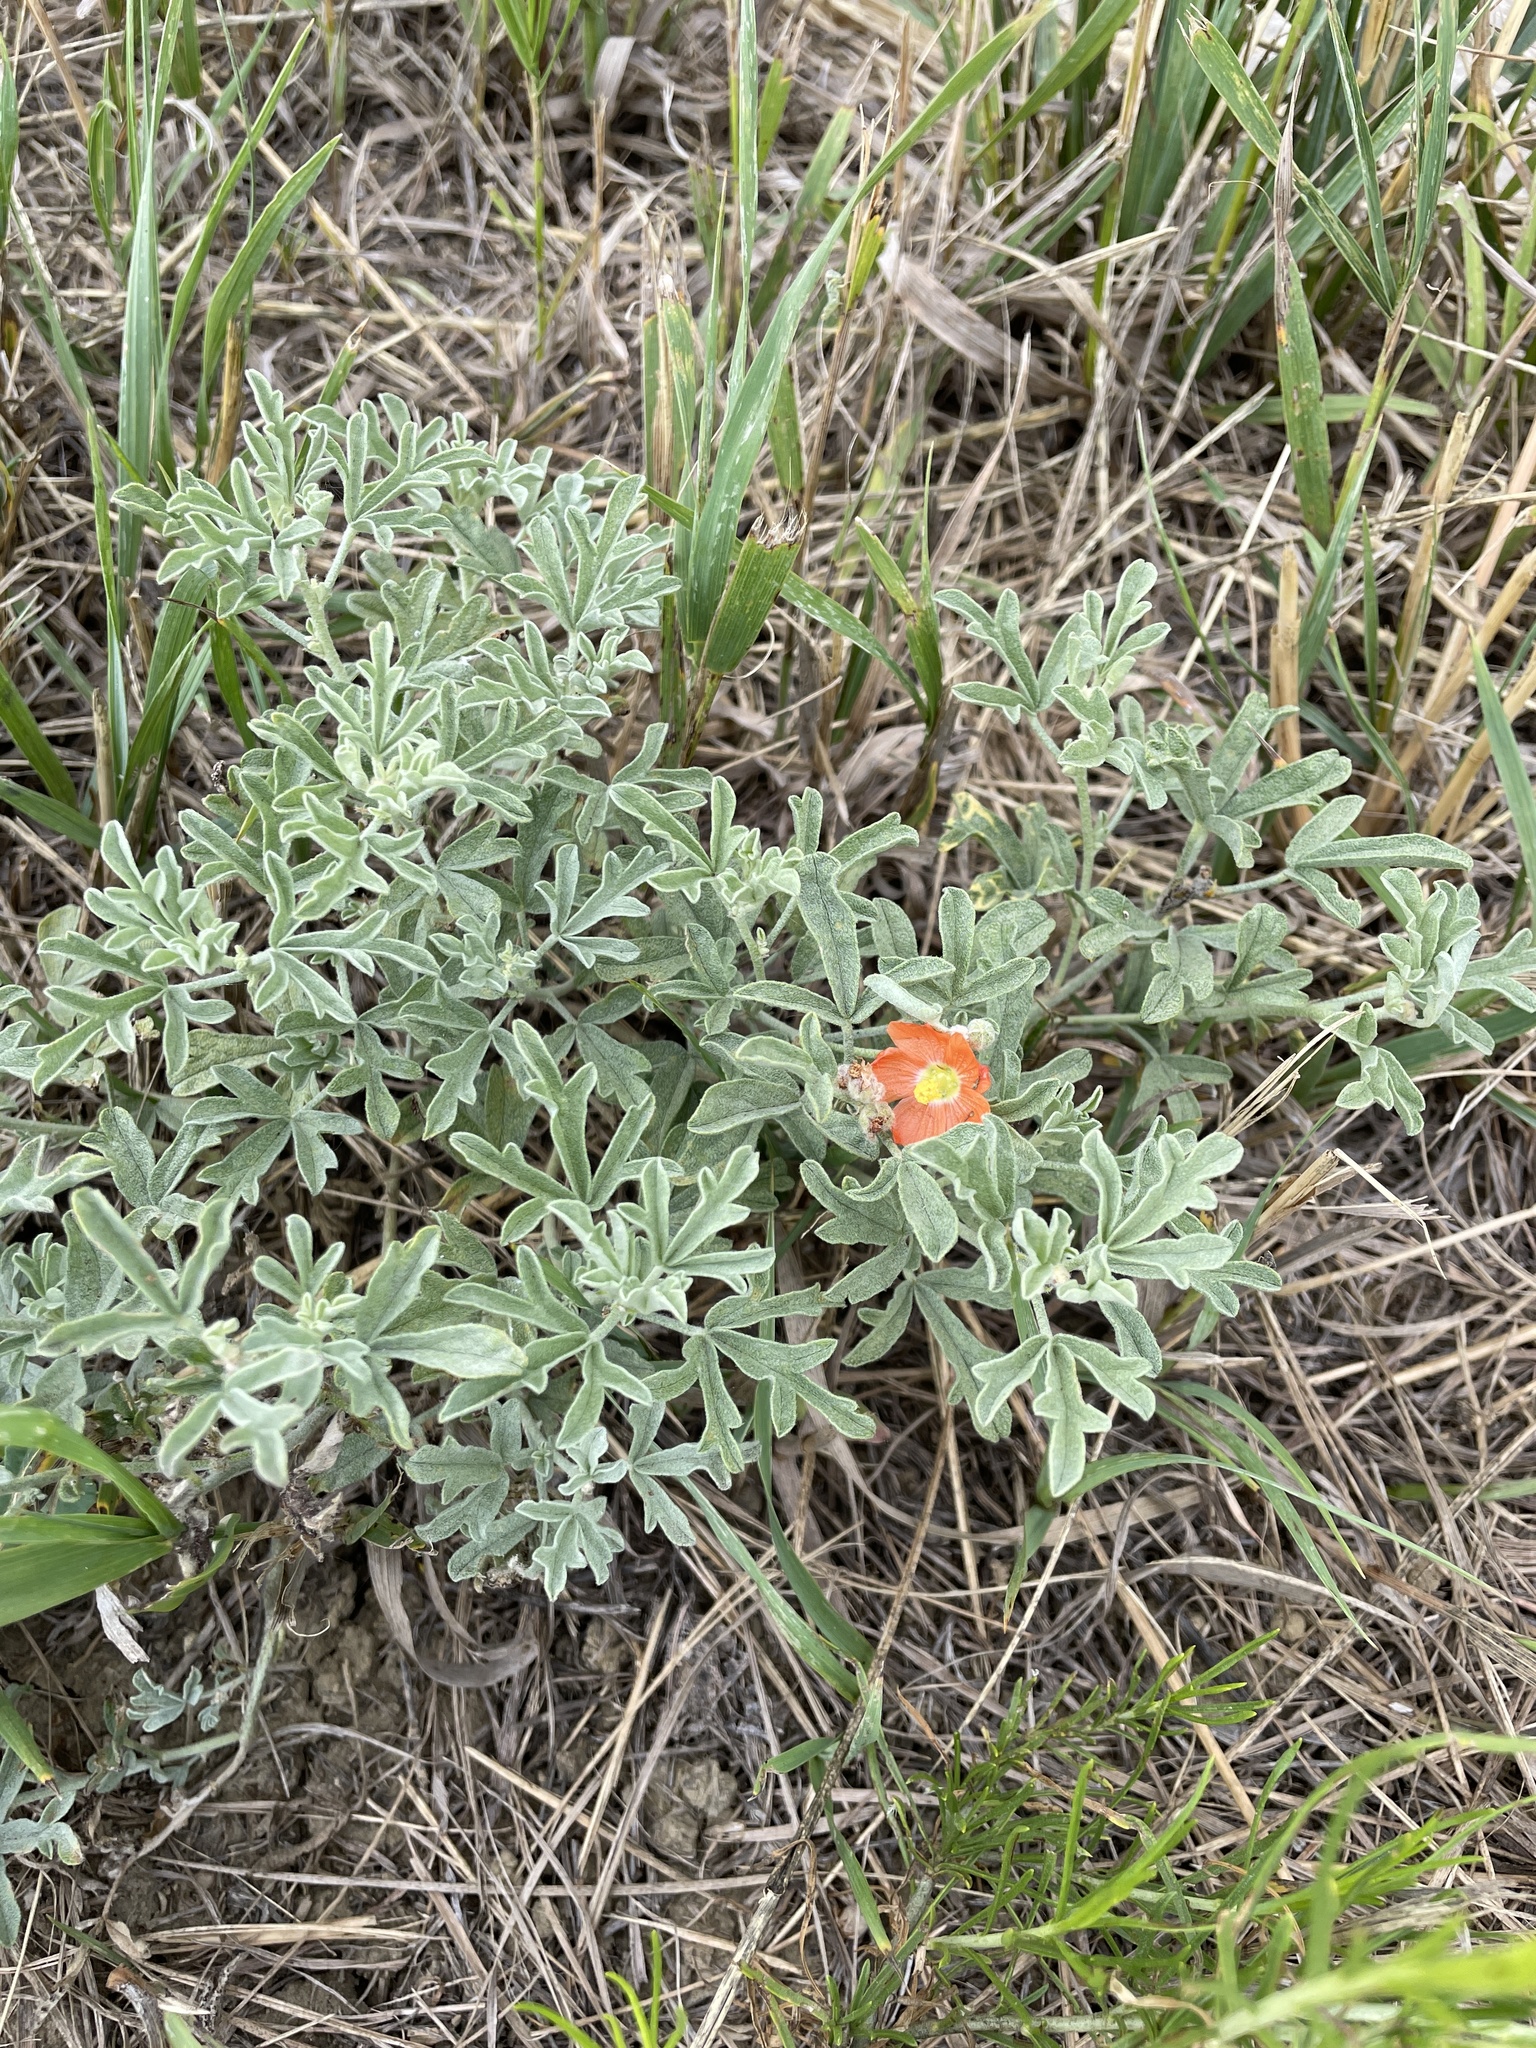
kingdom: Plantae
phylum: Tracheophyta
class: Magnoliopsida
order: Malvales
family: Malvaceae
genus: Sphaeralcea
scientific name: Sphaeralcea coccinea
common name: Moss-rose
